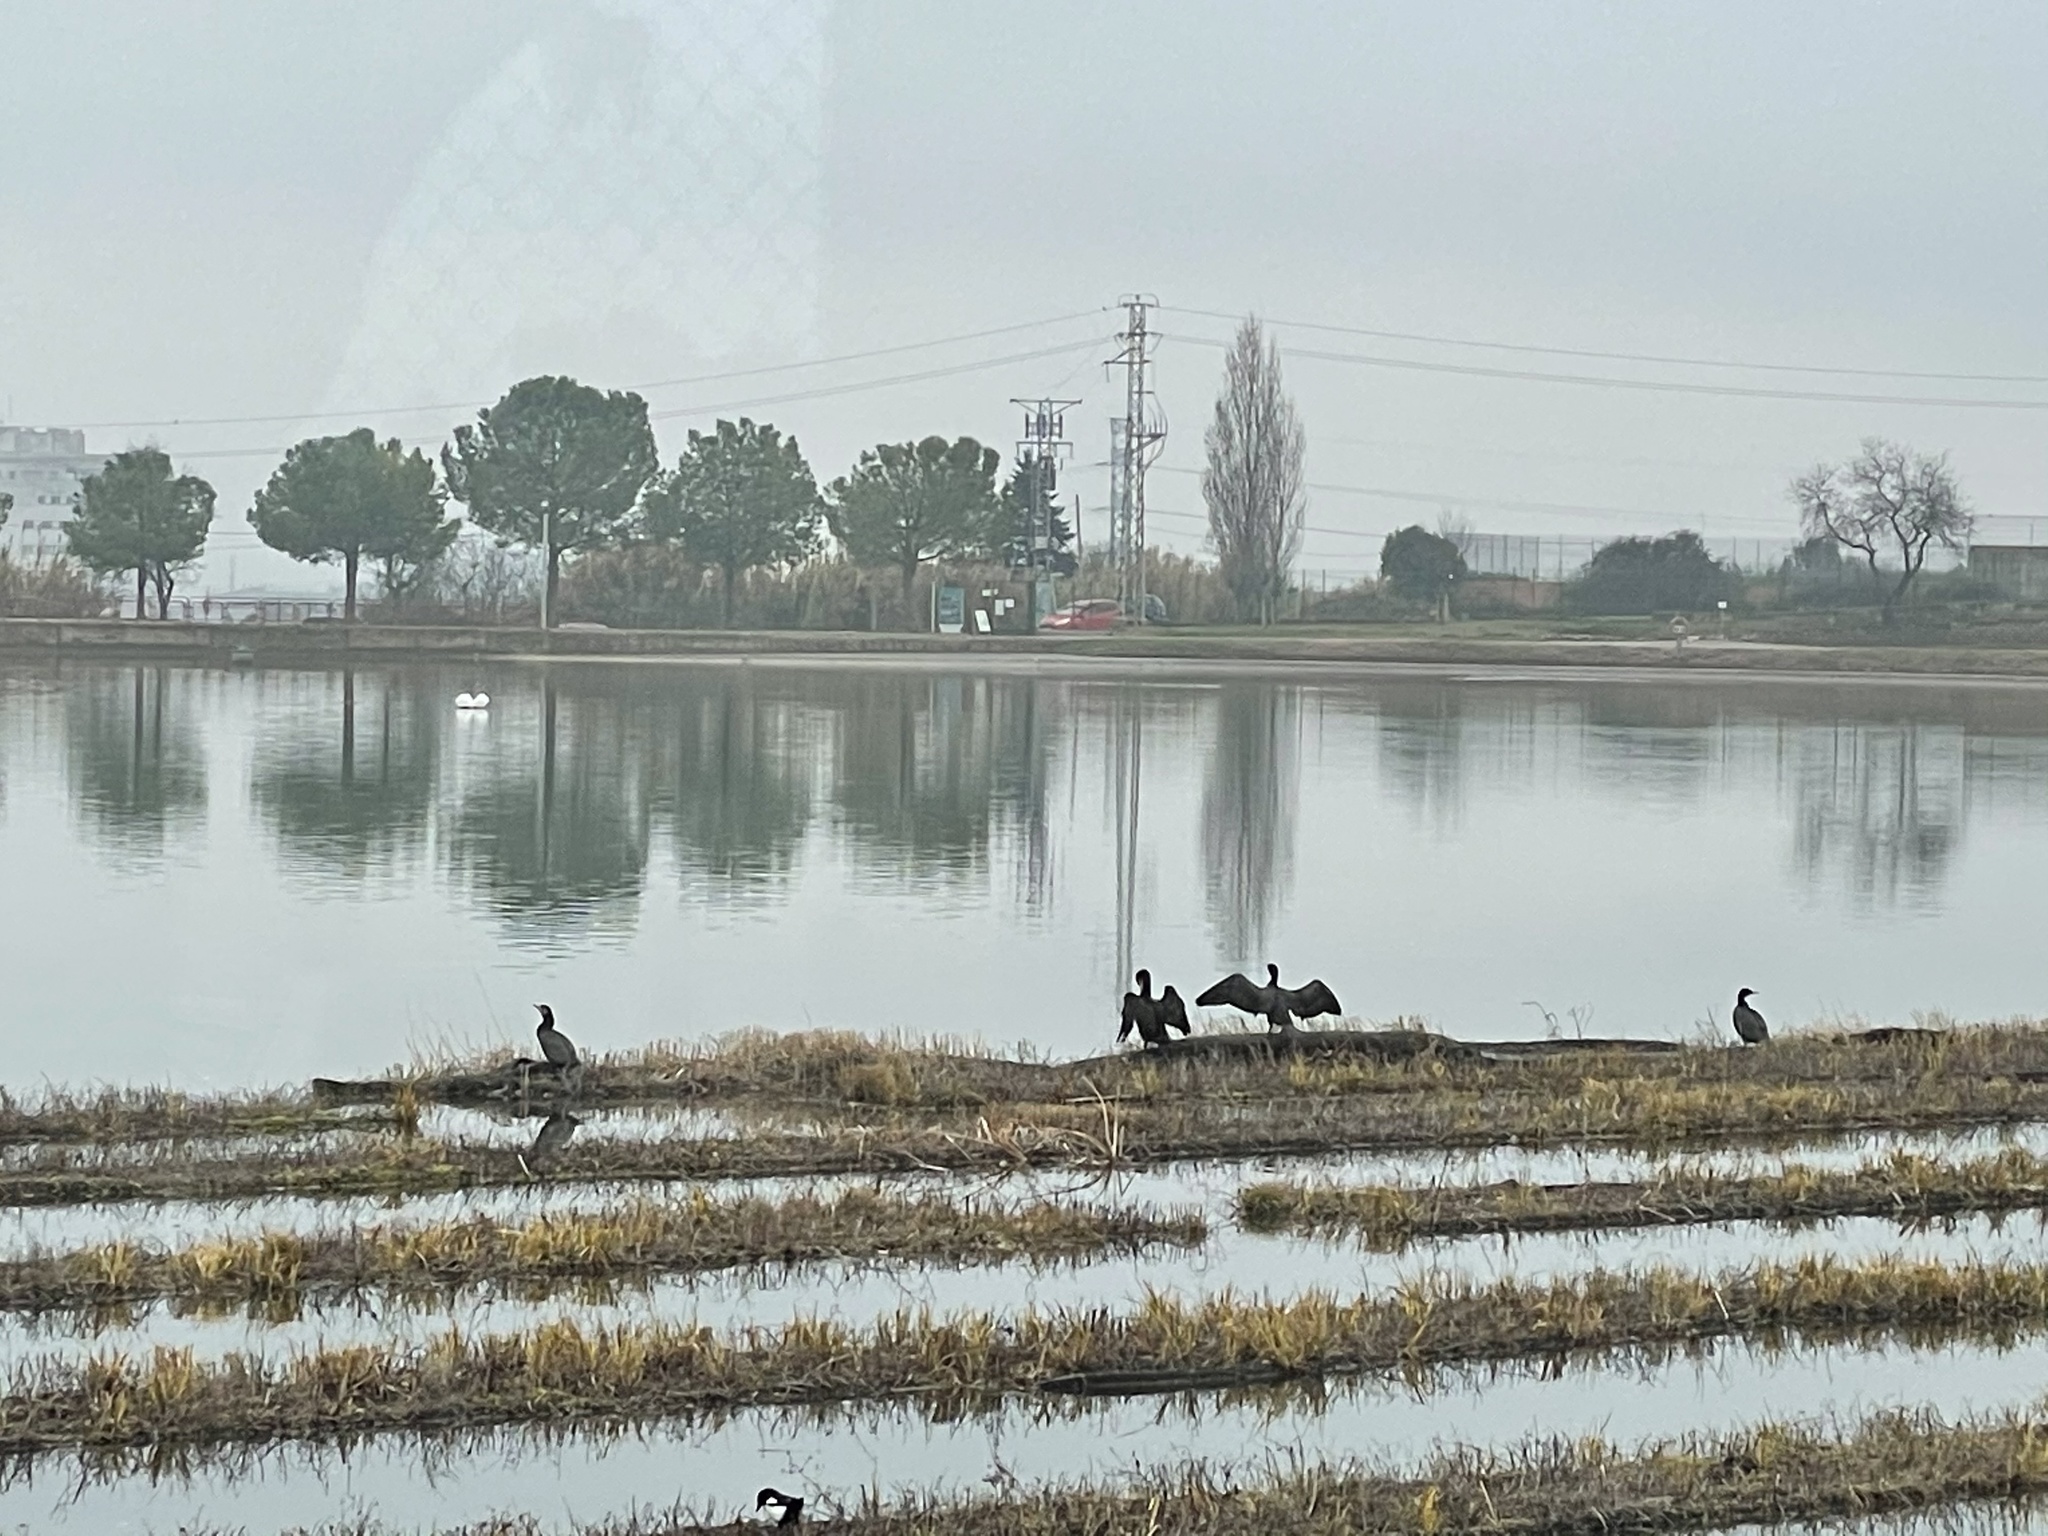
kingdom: Animalia
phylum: Chordata
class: Aves
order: Suliformes
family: Phalacrocoracidae
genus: Phalacrocorax
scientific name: Phalacrocorax carbo
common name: Great cormorant
